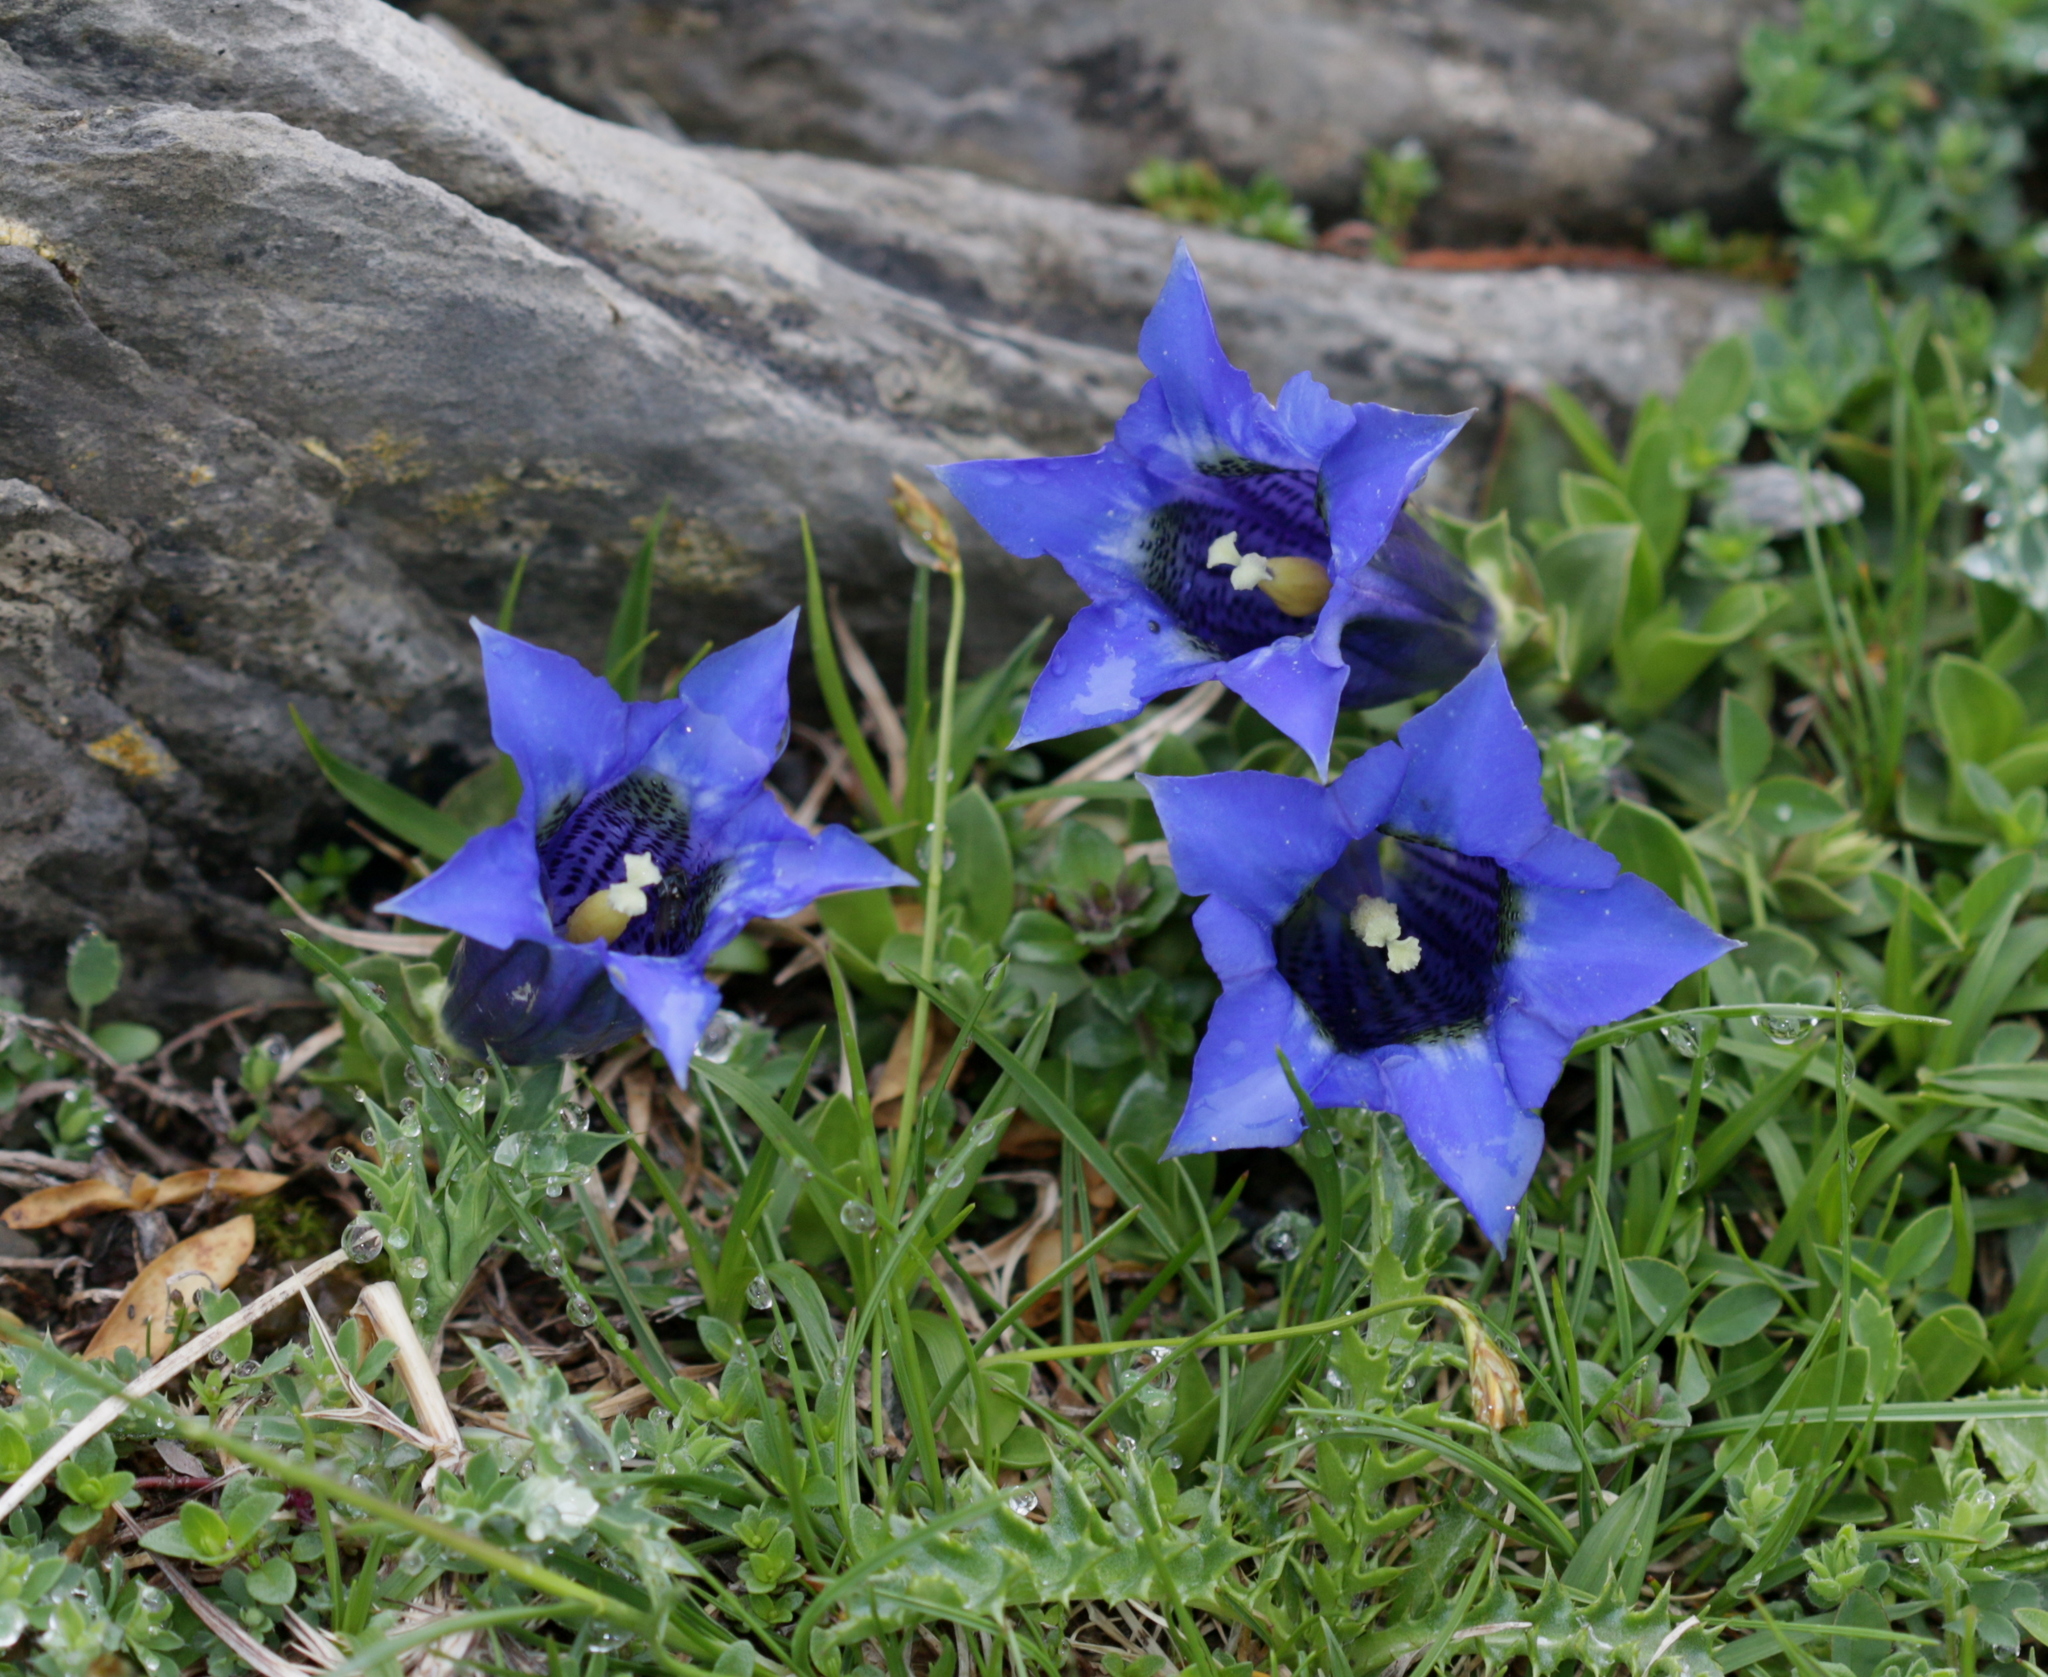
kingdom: Plantae
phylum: Tracheophyta
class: Magnoliopsida
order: Gentianales
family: Gentianaceae
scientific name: Gentianaceae
